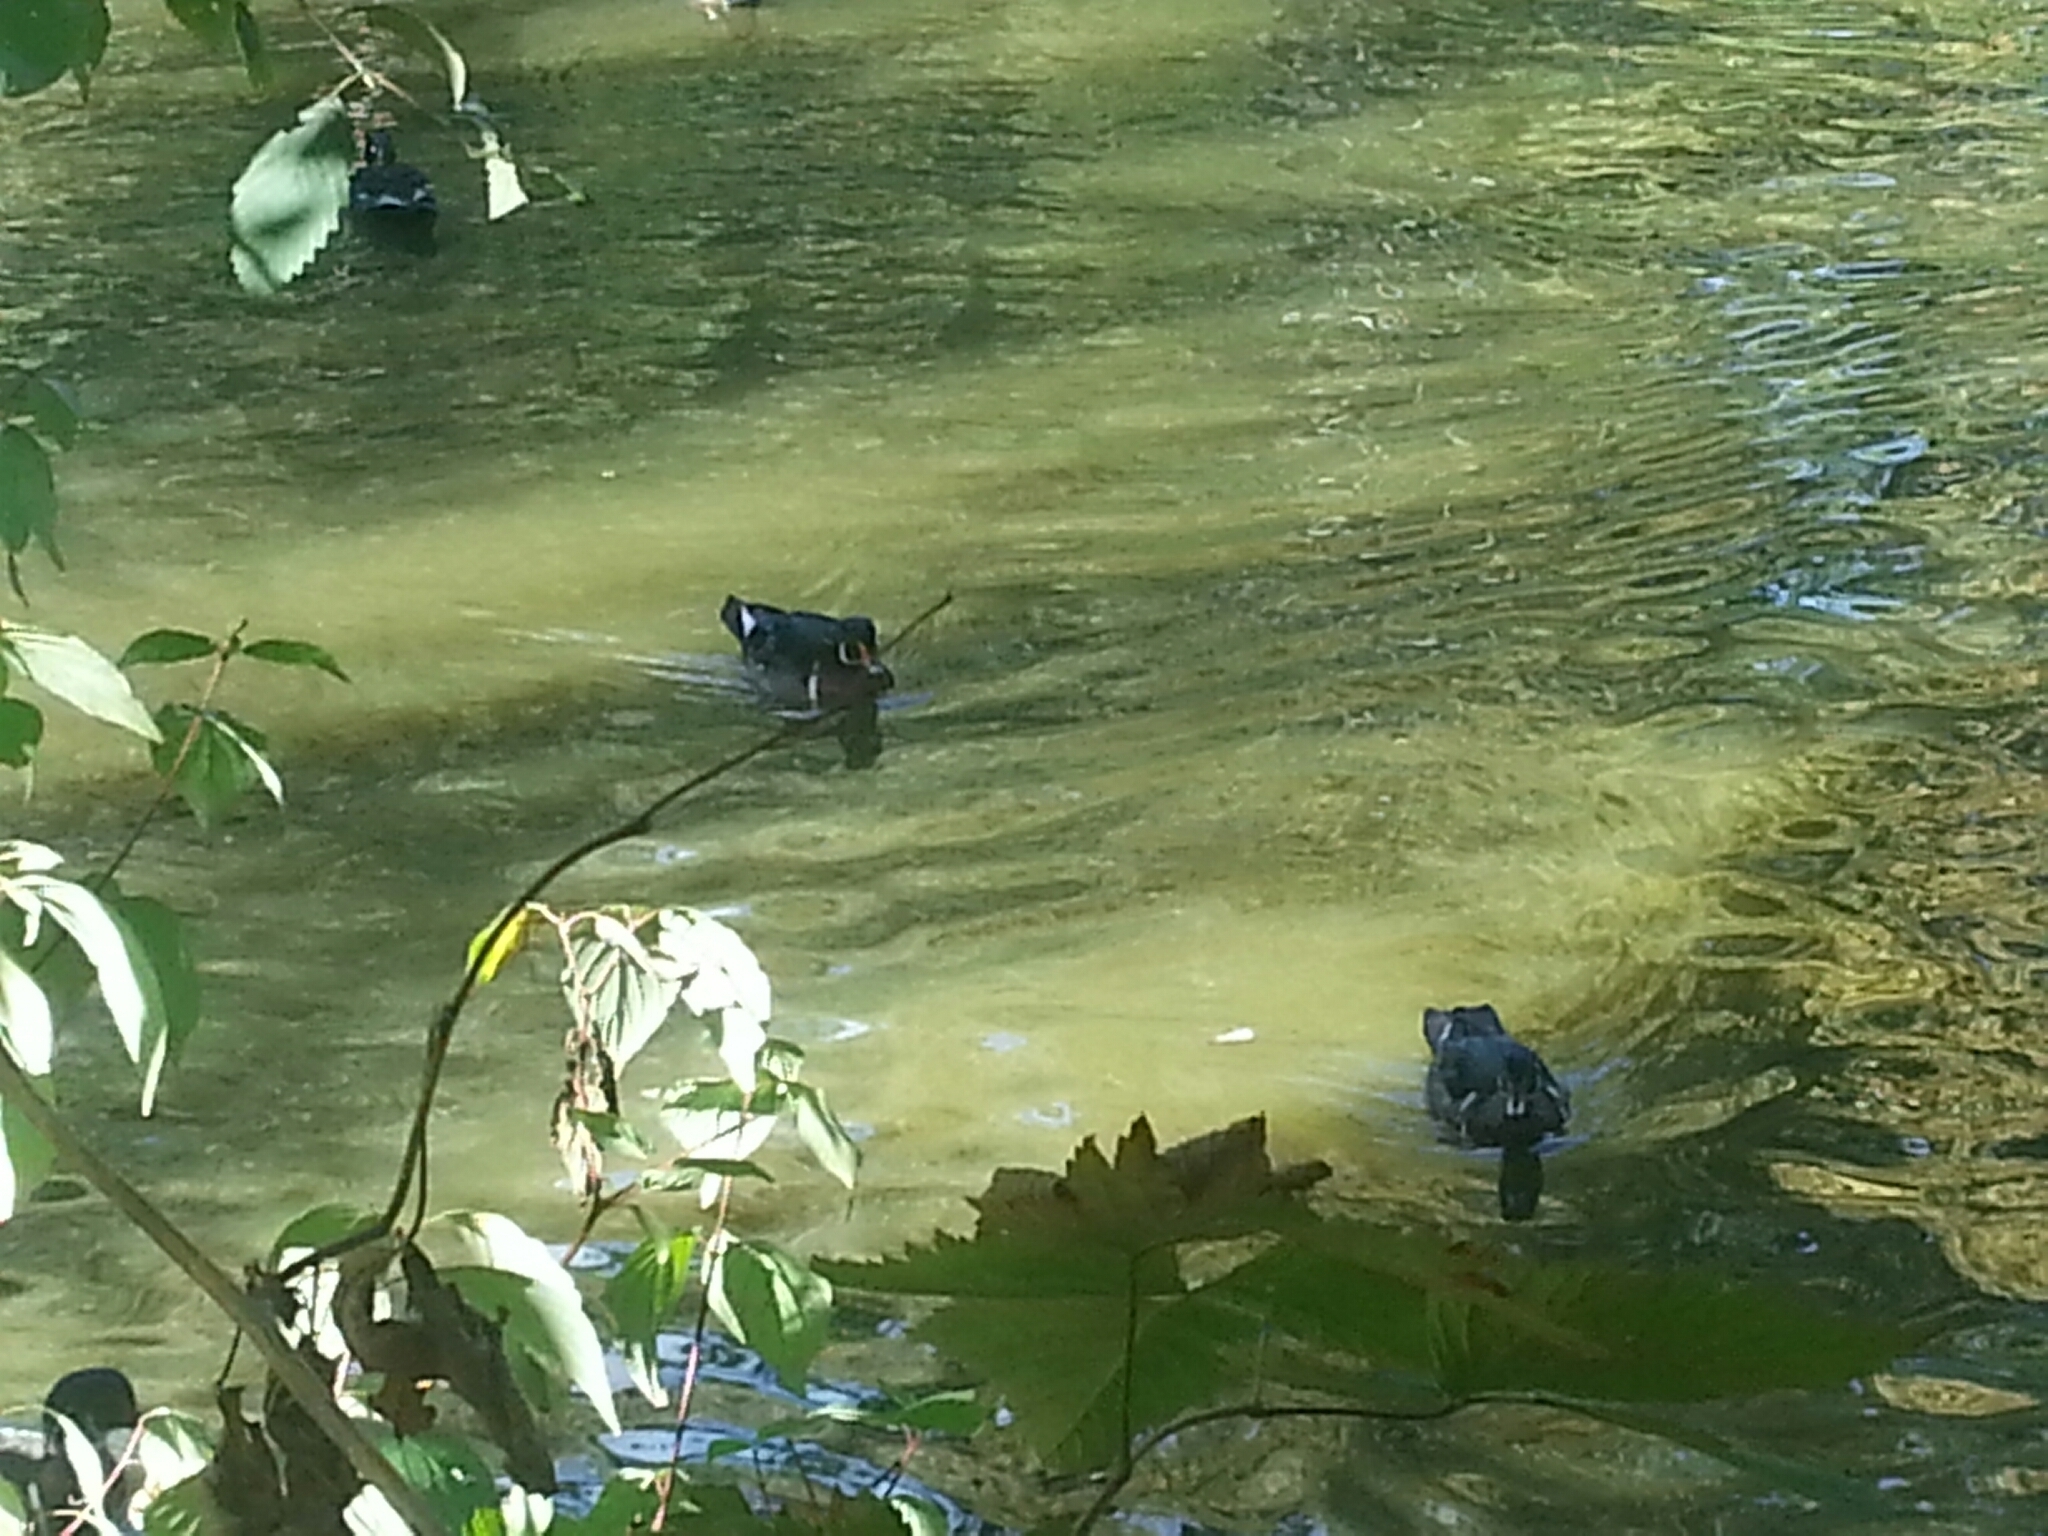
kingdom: Animalia
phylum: Chordata
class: Aves
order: Anseriformes
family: Anatidae
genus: Aix
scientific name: Aix sponsa
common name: Wood duck
